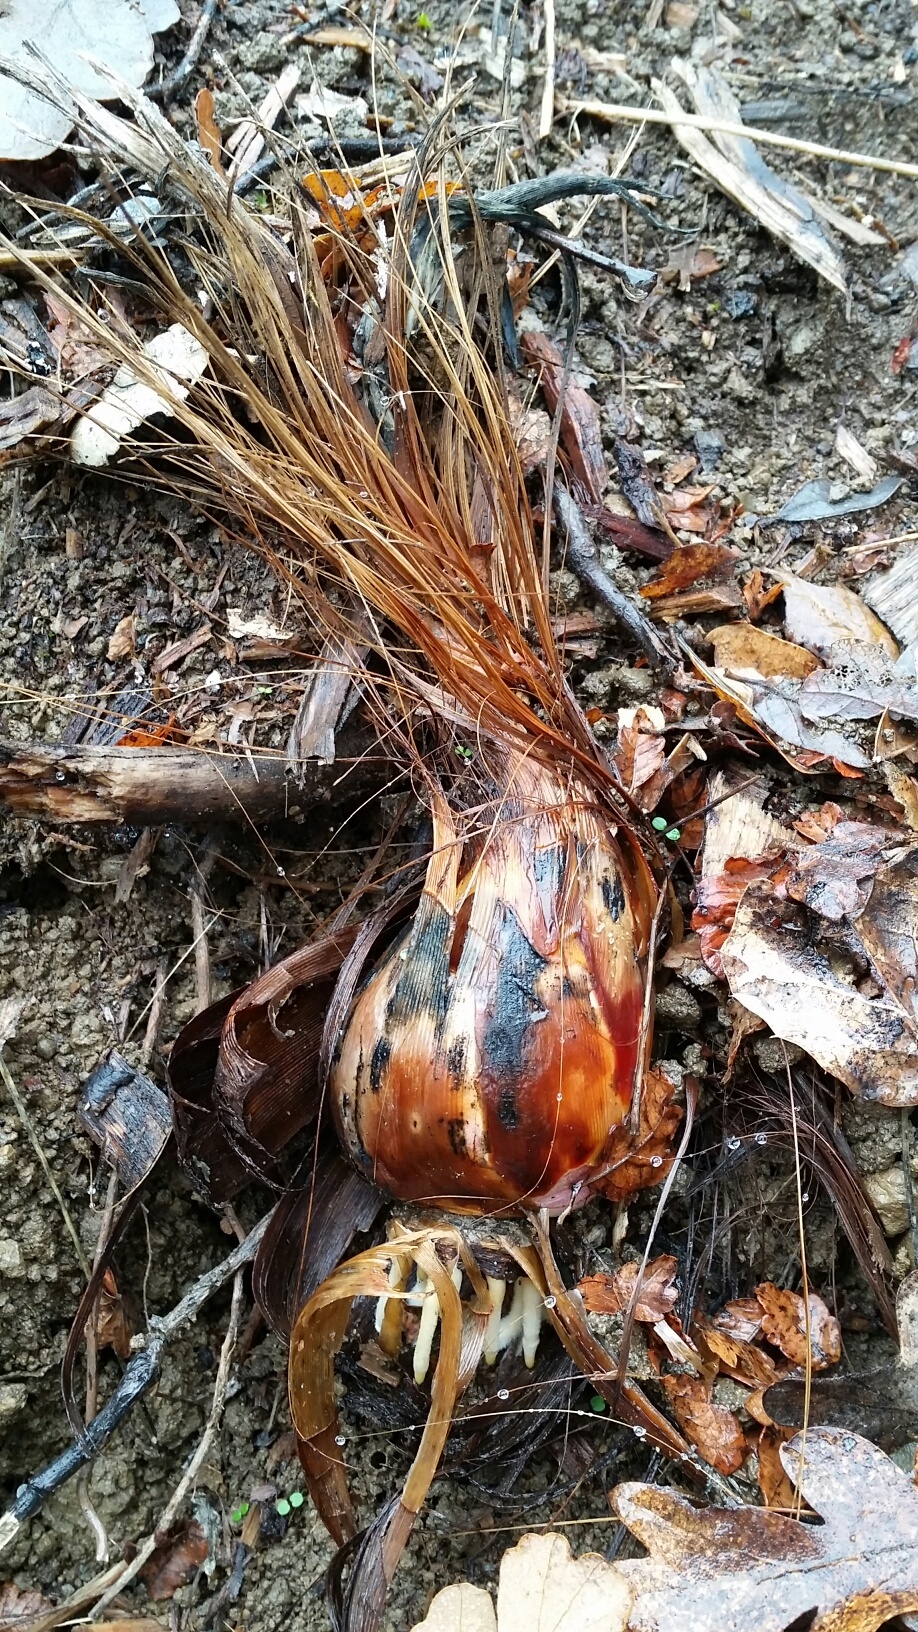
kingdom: Plantae
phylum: Tracheophyta
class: Liliopsida
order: Asparagales
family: Asparagaceae
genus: Chlorogalum
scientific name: Chlorogalum pomeridianum
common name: Amole
